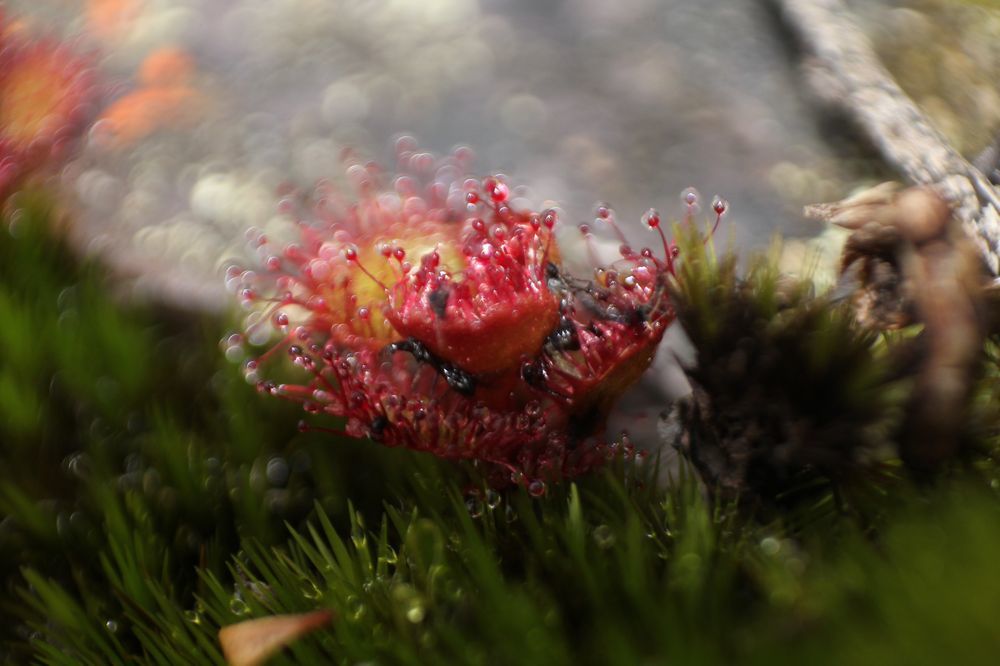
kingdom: Plantae
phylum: Tracheophyta
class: Magnoliopsida
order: Caryophyllales
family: Droseraceae
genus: Drosera
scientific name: Drosera monticola
